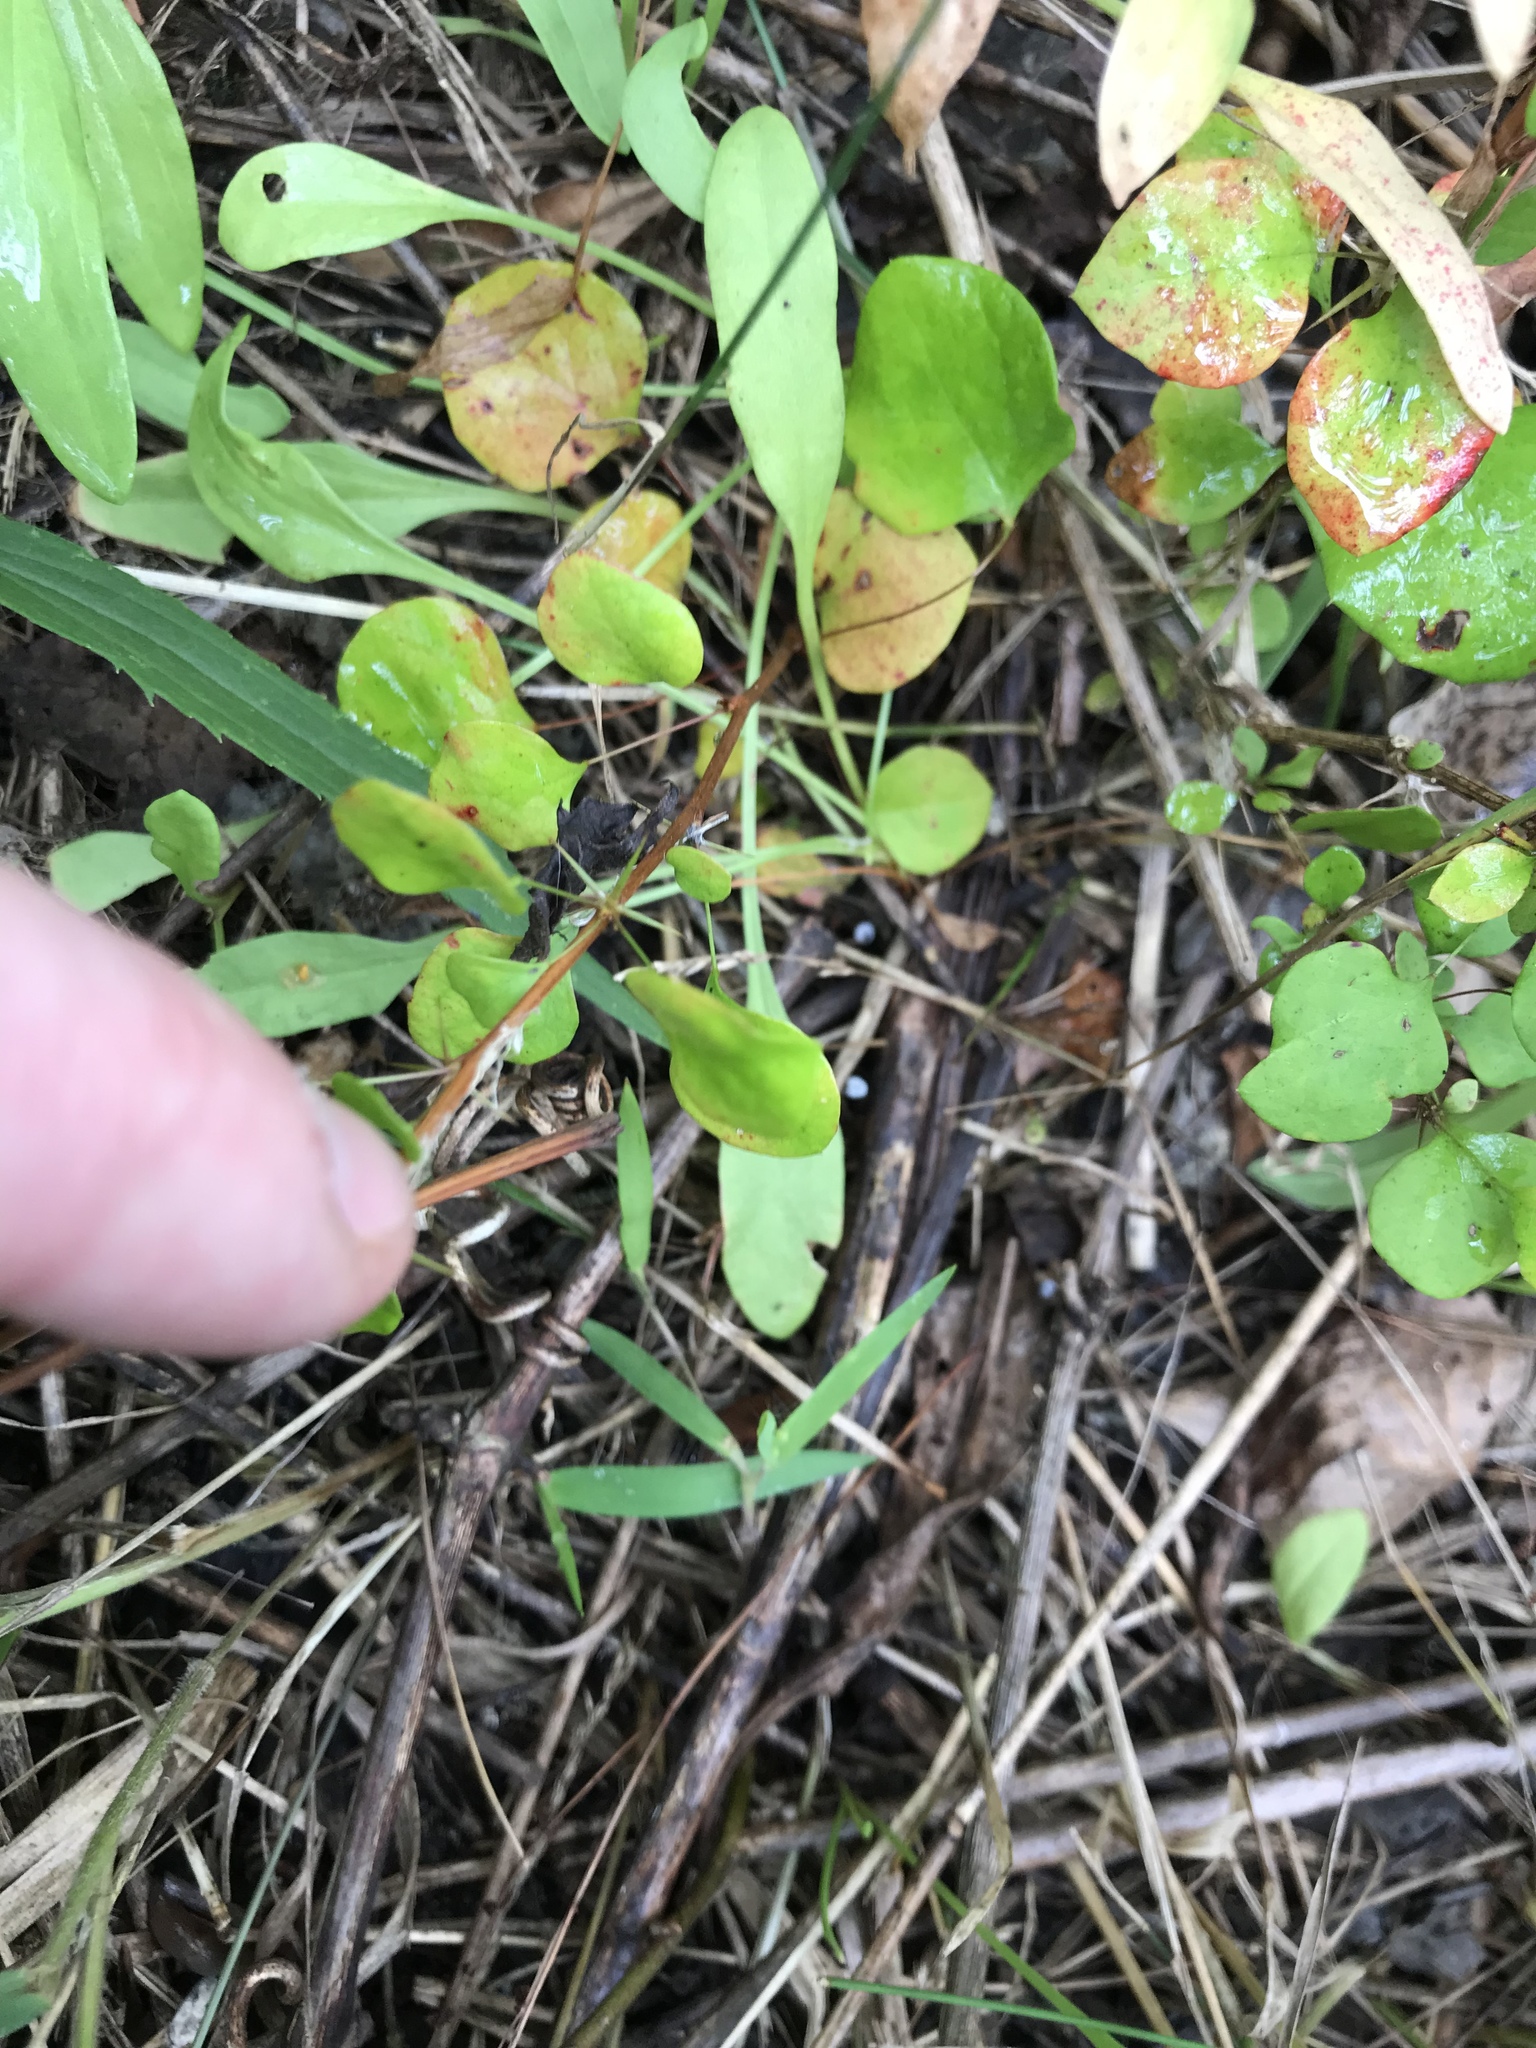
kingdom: Plantae
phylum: Tracheophyta
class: Magnoliopsida
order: Ranunculales
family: Berberidaceae
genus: Berberis
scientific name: Berberis thunbergii
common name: Japanese barberry
